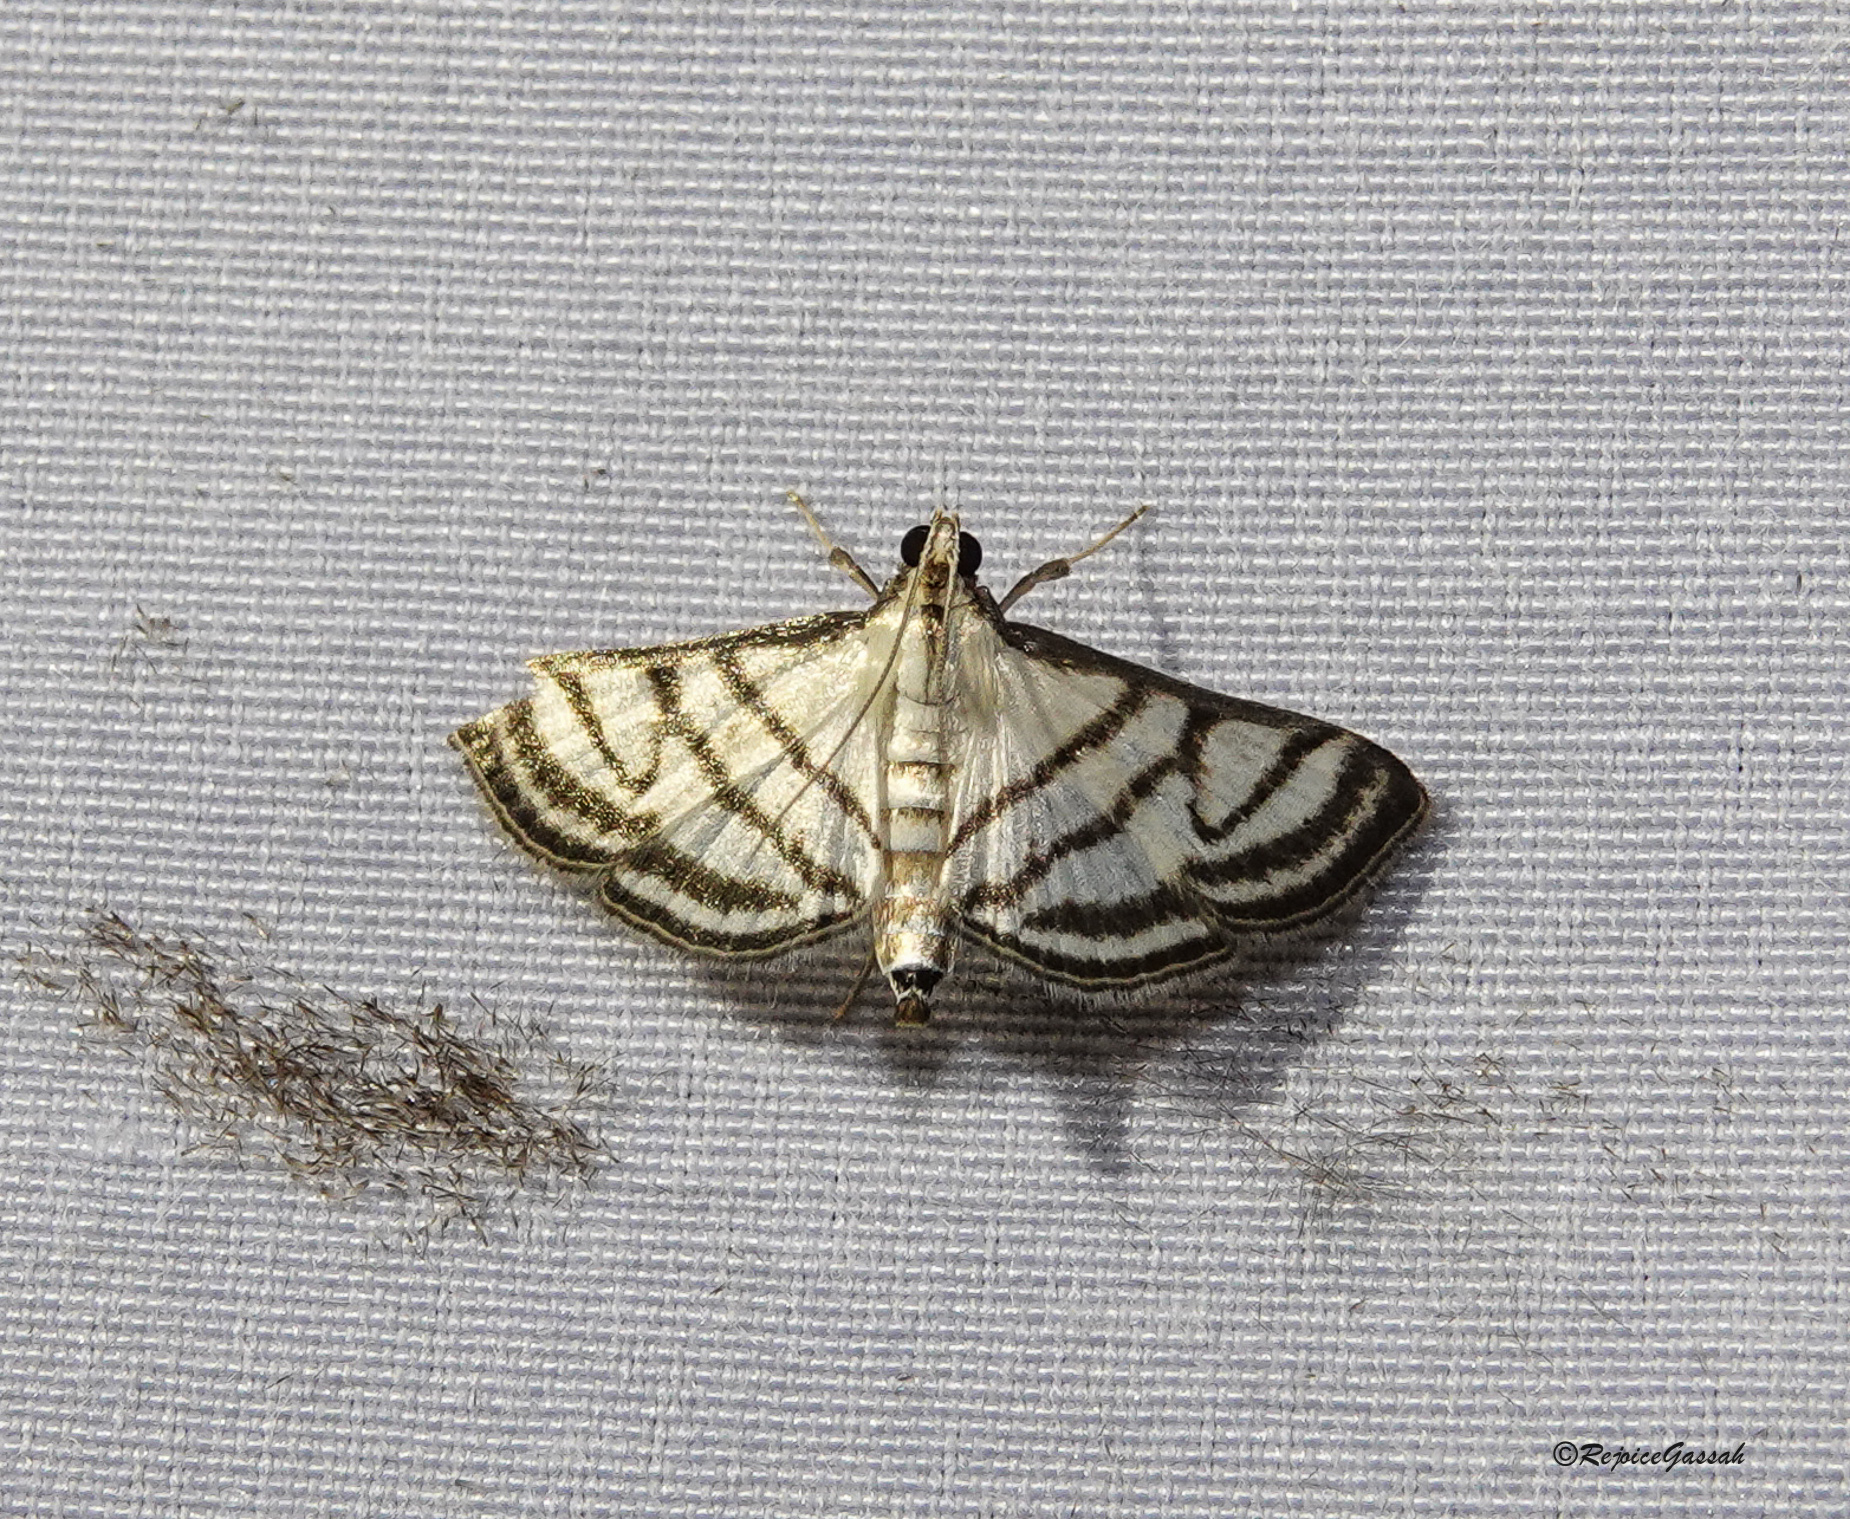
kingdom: Animalia
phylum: Arthropoda
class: Insecta
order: Lepidoptera
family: Crambidae
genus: Ravanoa
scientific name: Ravanoa xiphialis
